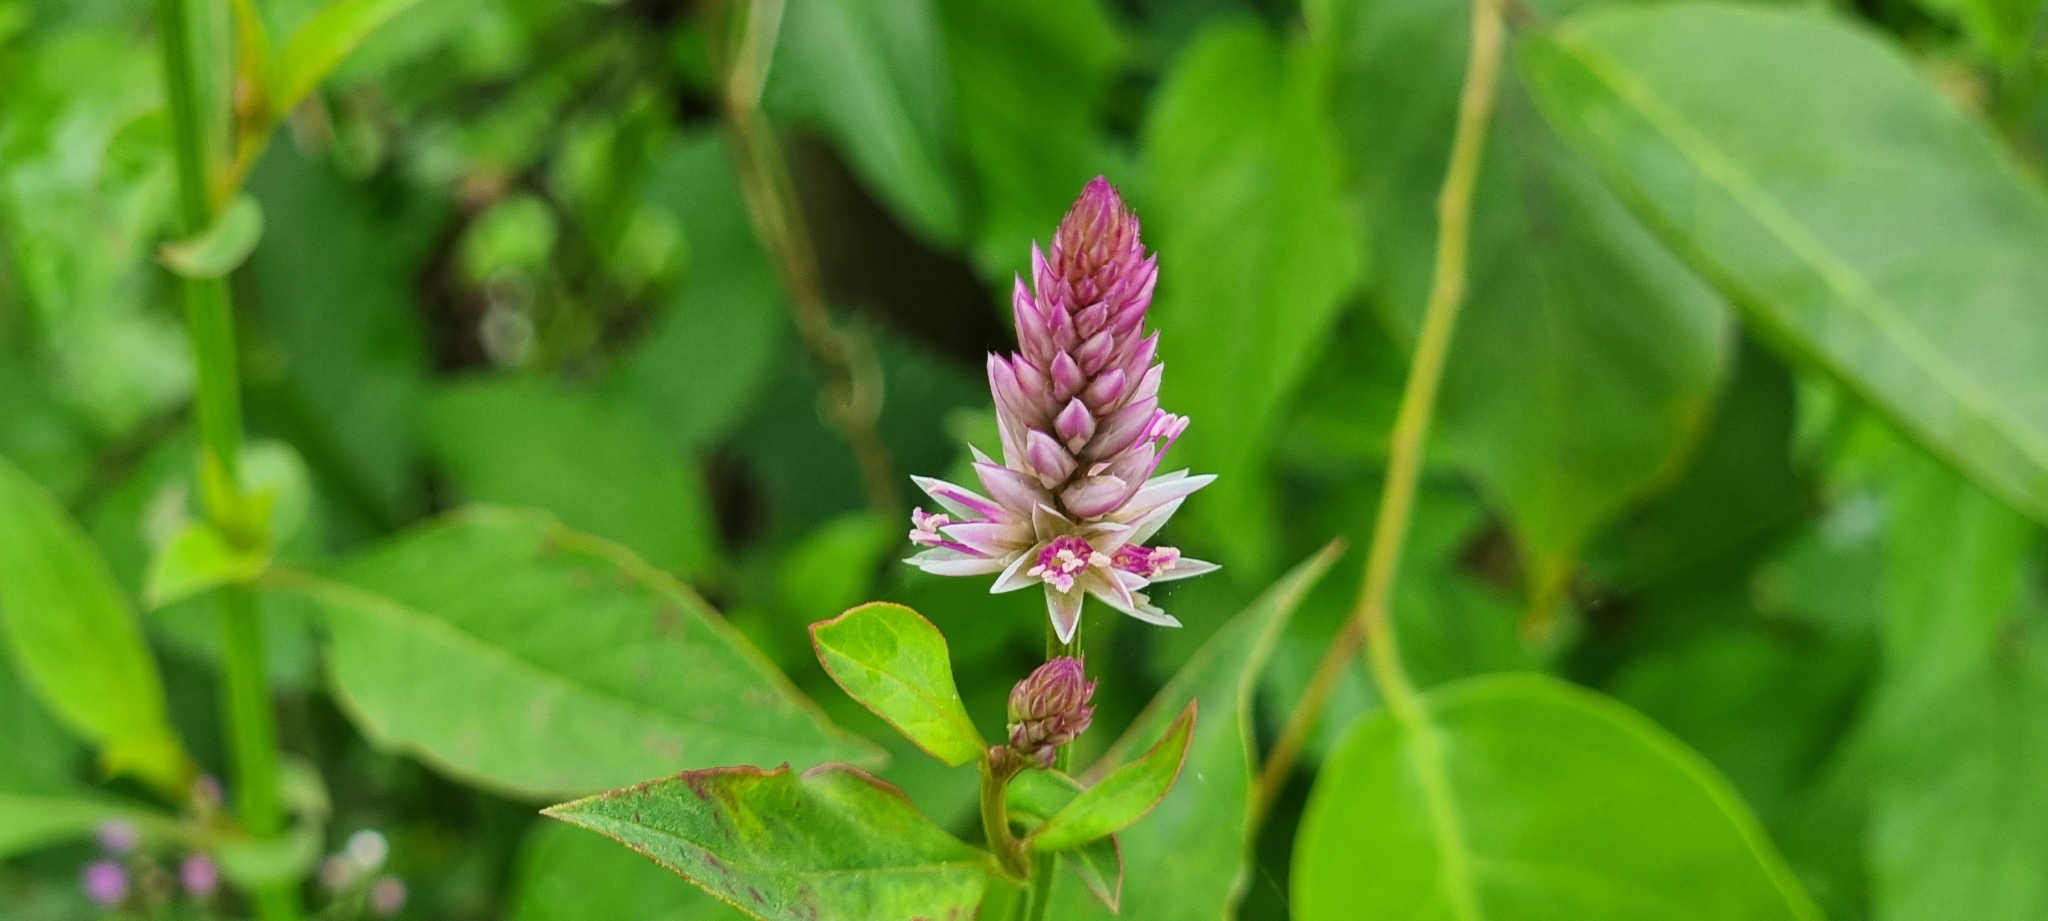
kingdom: Plantae
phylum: Tracheophyta
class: Magnoliopsida
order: Caryophyllales
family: Amaranthaceae
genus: Celosia
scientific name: Celosia argentea
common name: Feather cockscomb
